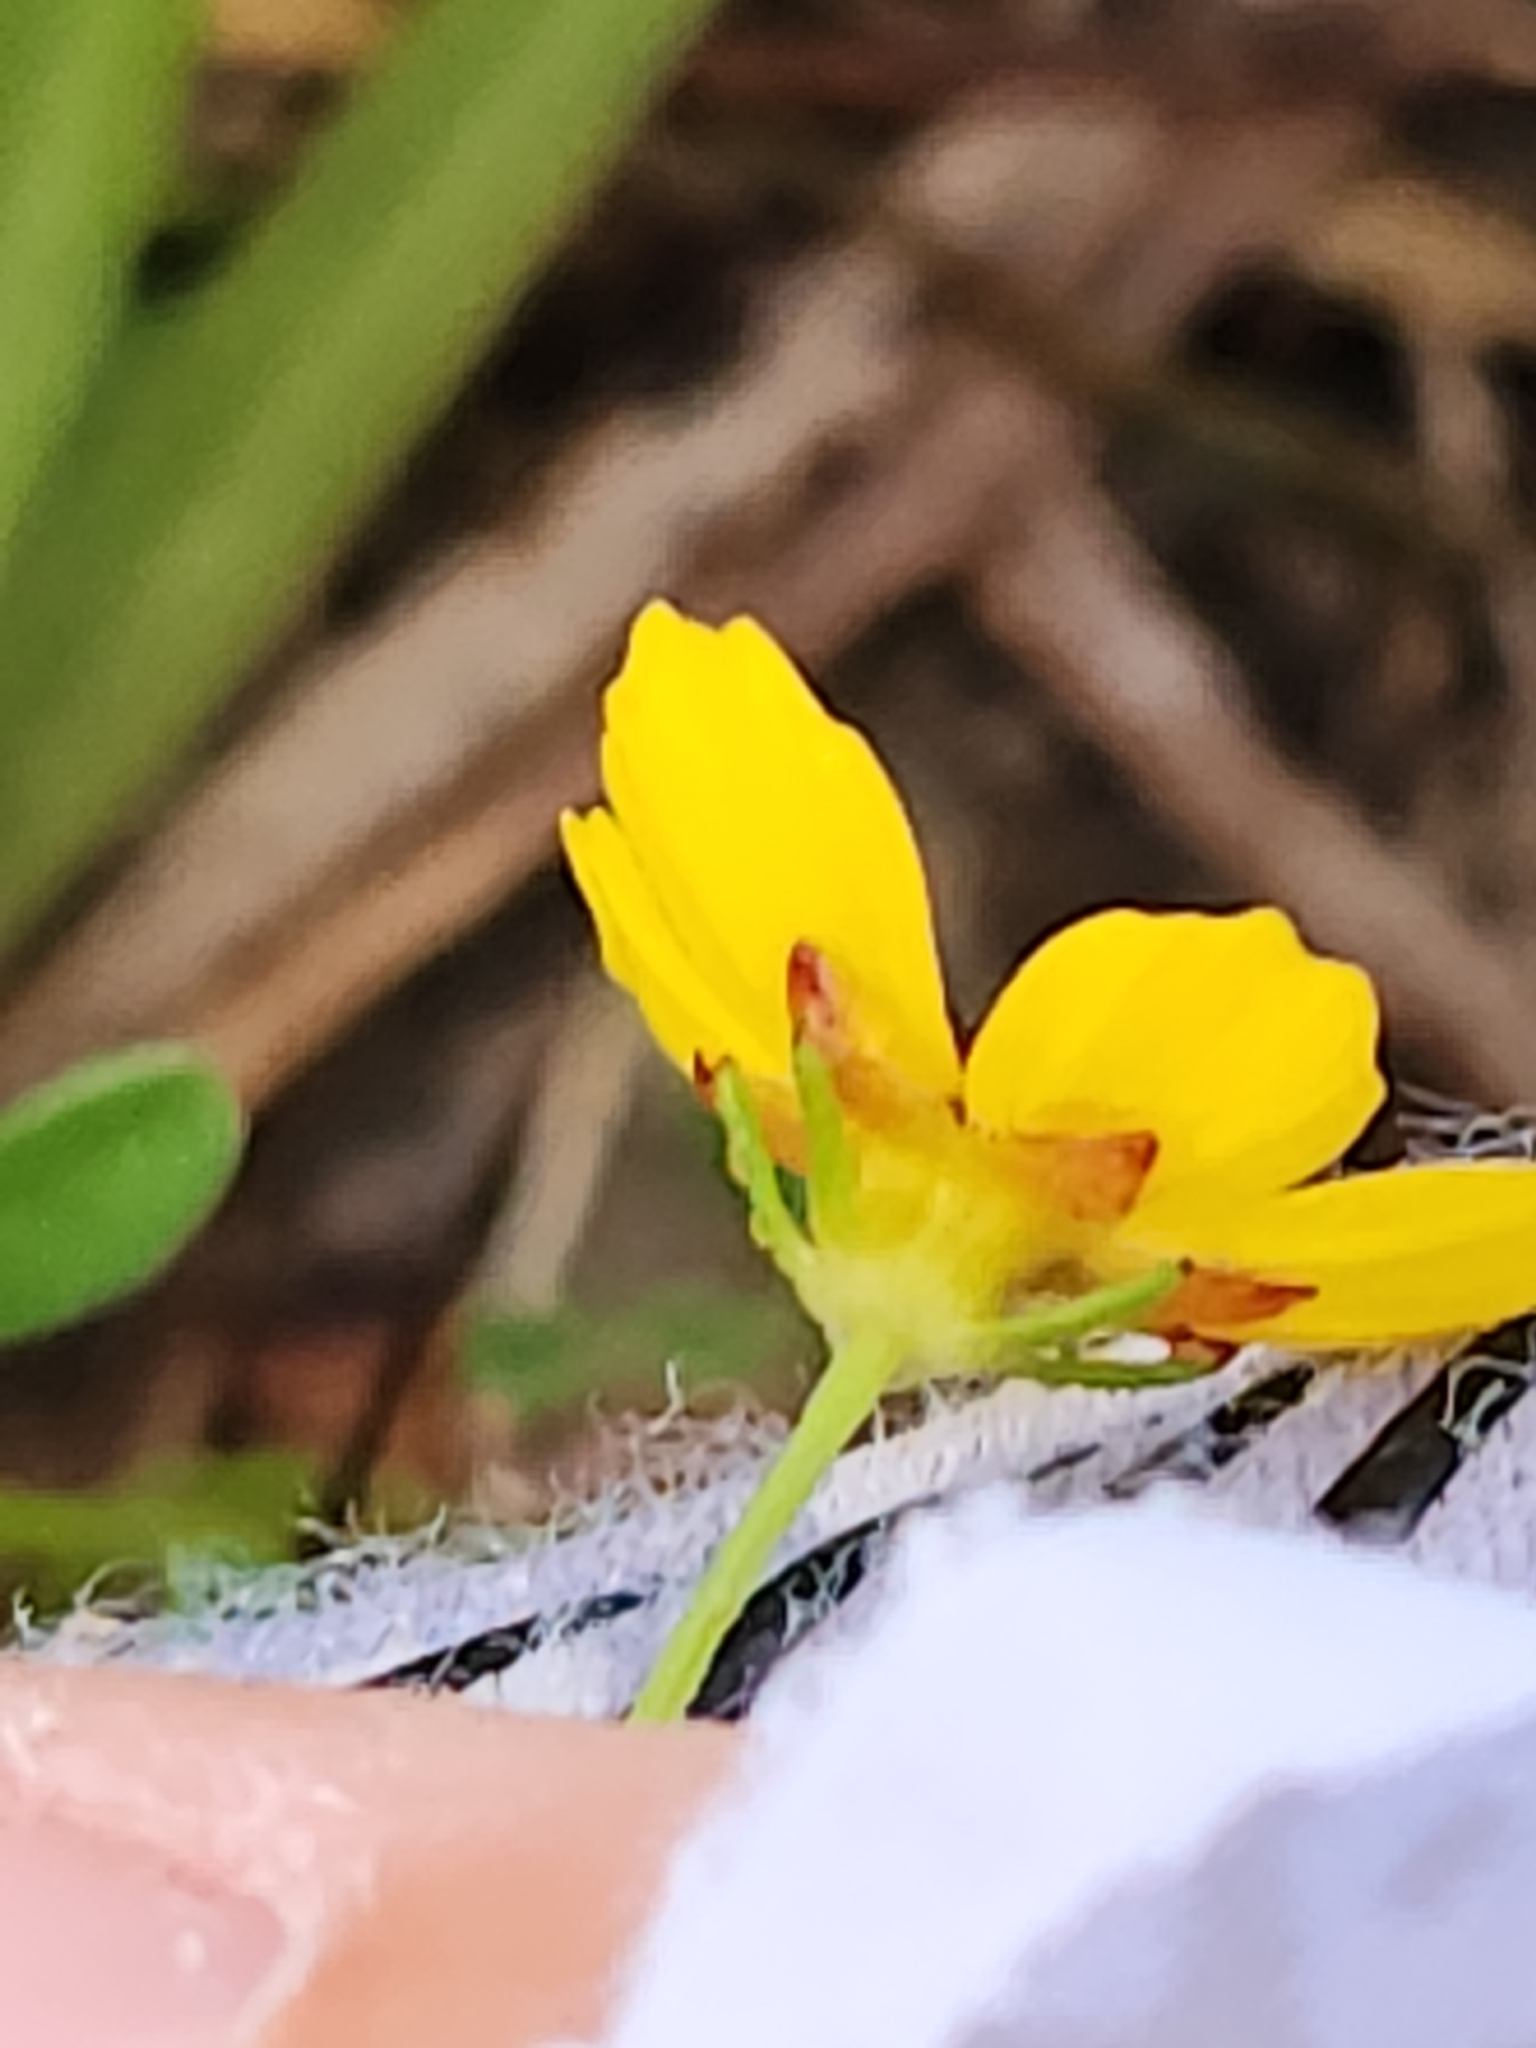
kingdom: Plantae
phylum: Tracheophyta
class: Magnoliopsida
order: Asterales
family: Asteraceae
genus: Coreopsis
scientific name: Coreopsis tinctoria
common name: Garden tickseed
